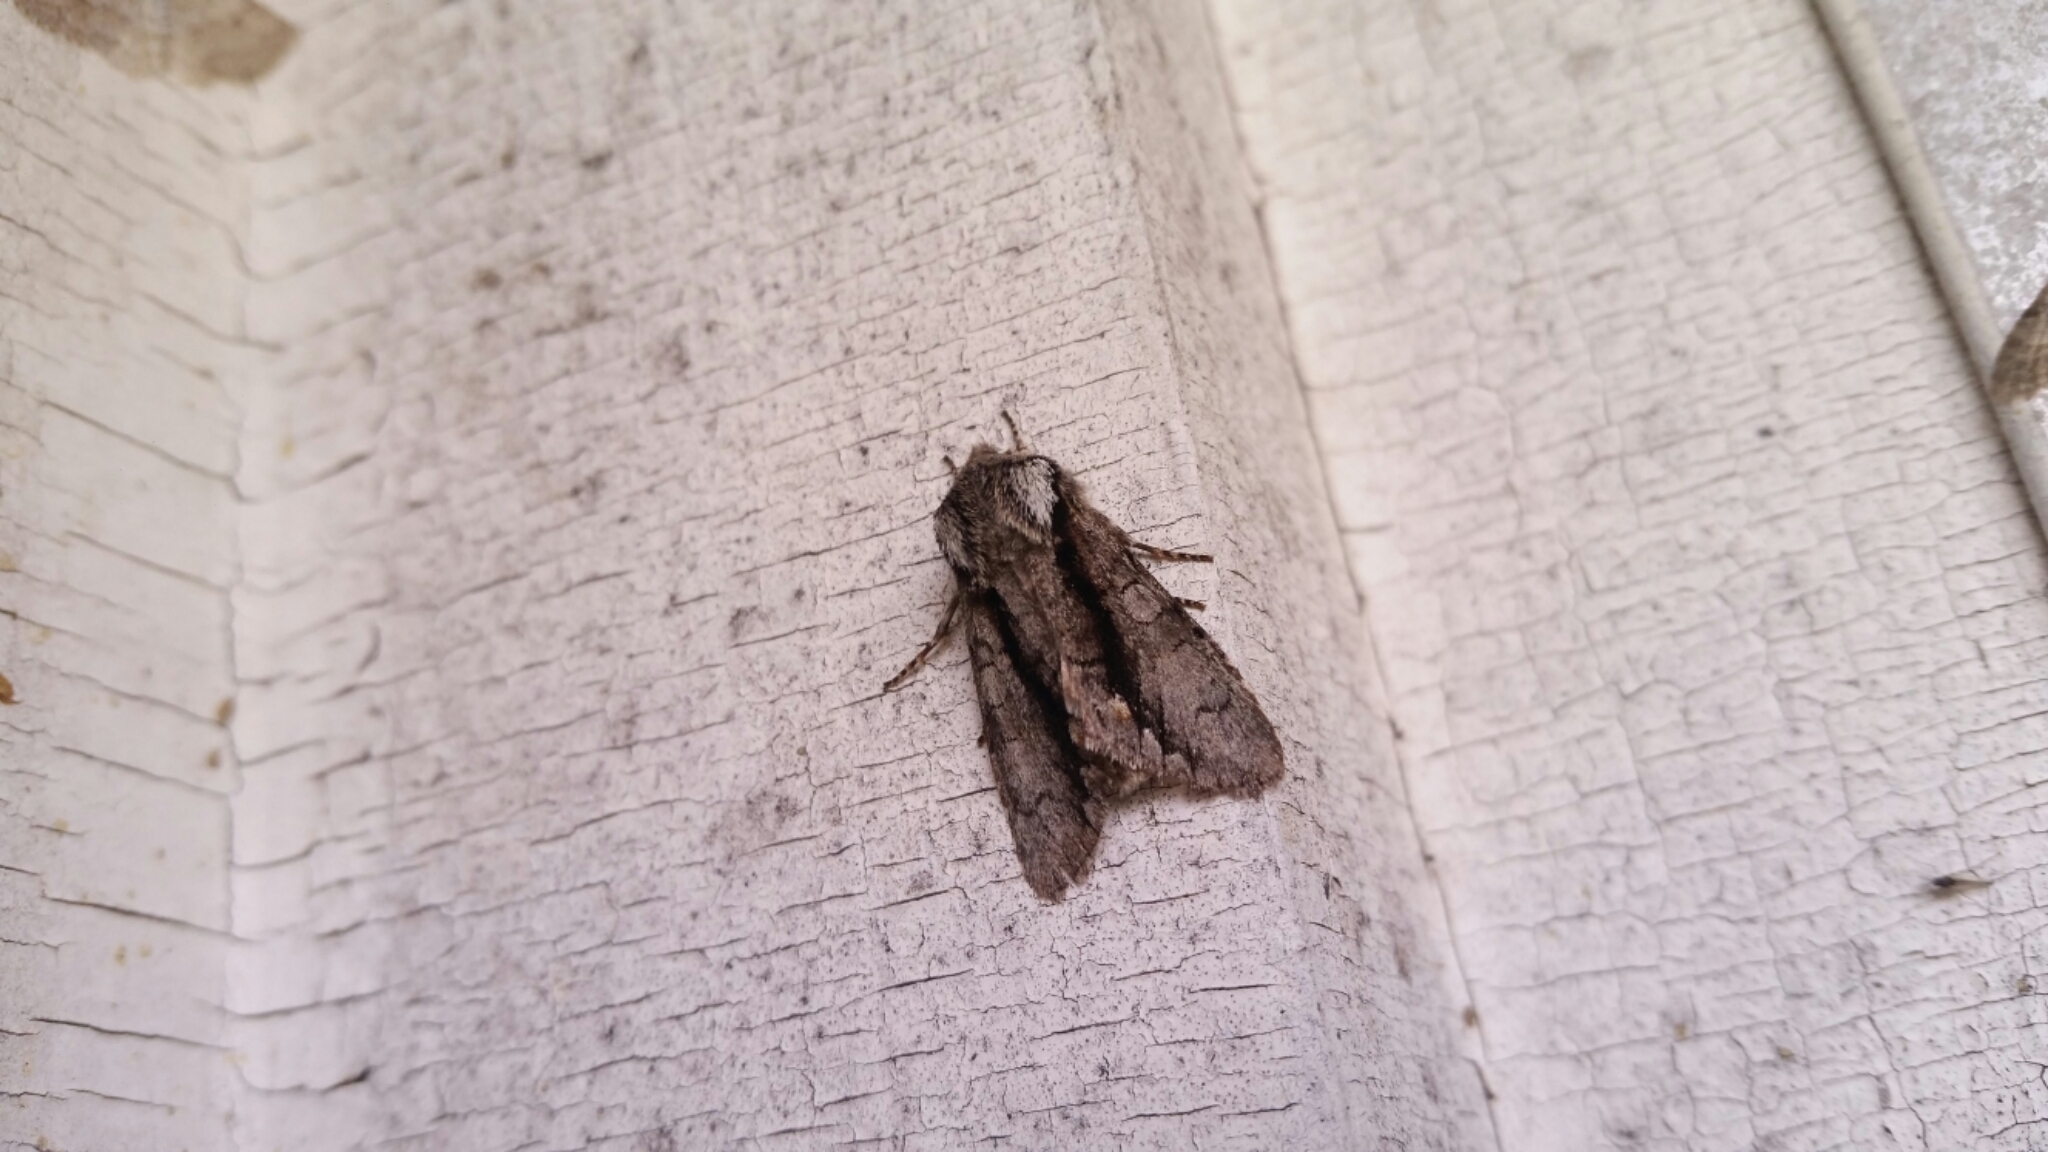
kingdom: Animalia
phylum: Arthropoda
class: Insecta
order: Lepidoptera
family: Noctuidae
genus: Psaphida
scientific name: Psaphida electilis
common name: Chosen sallow
